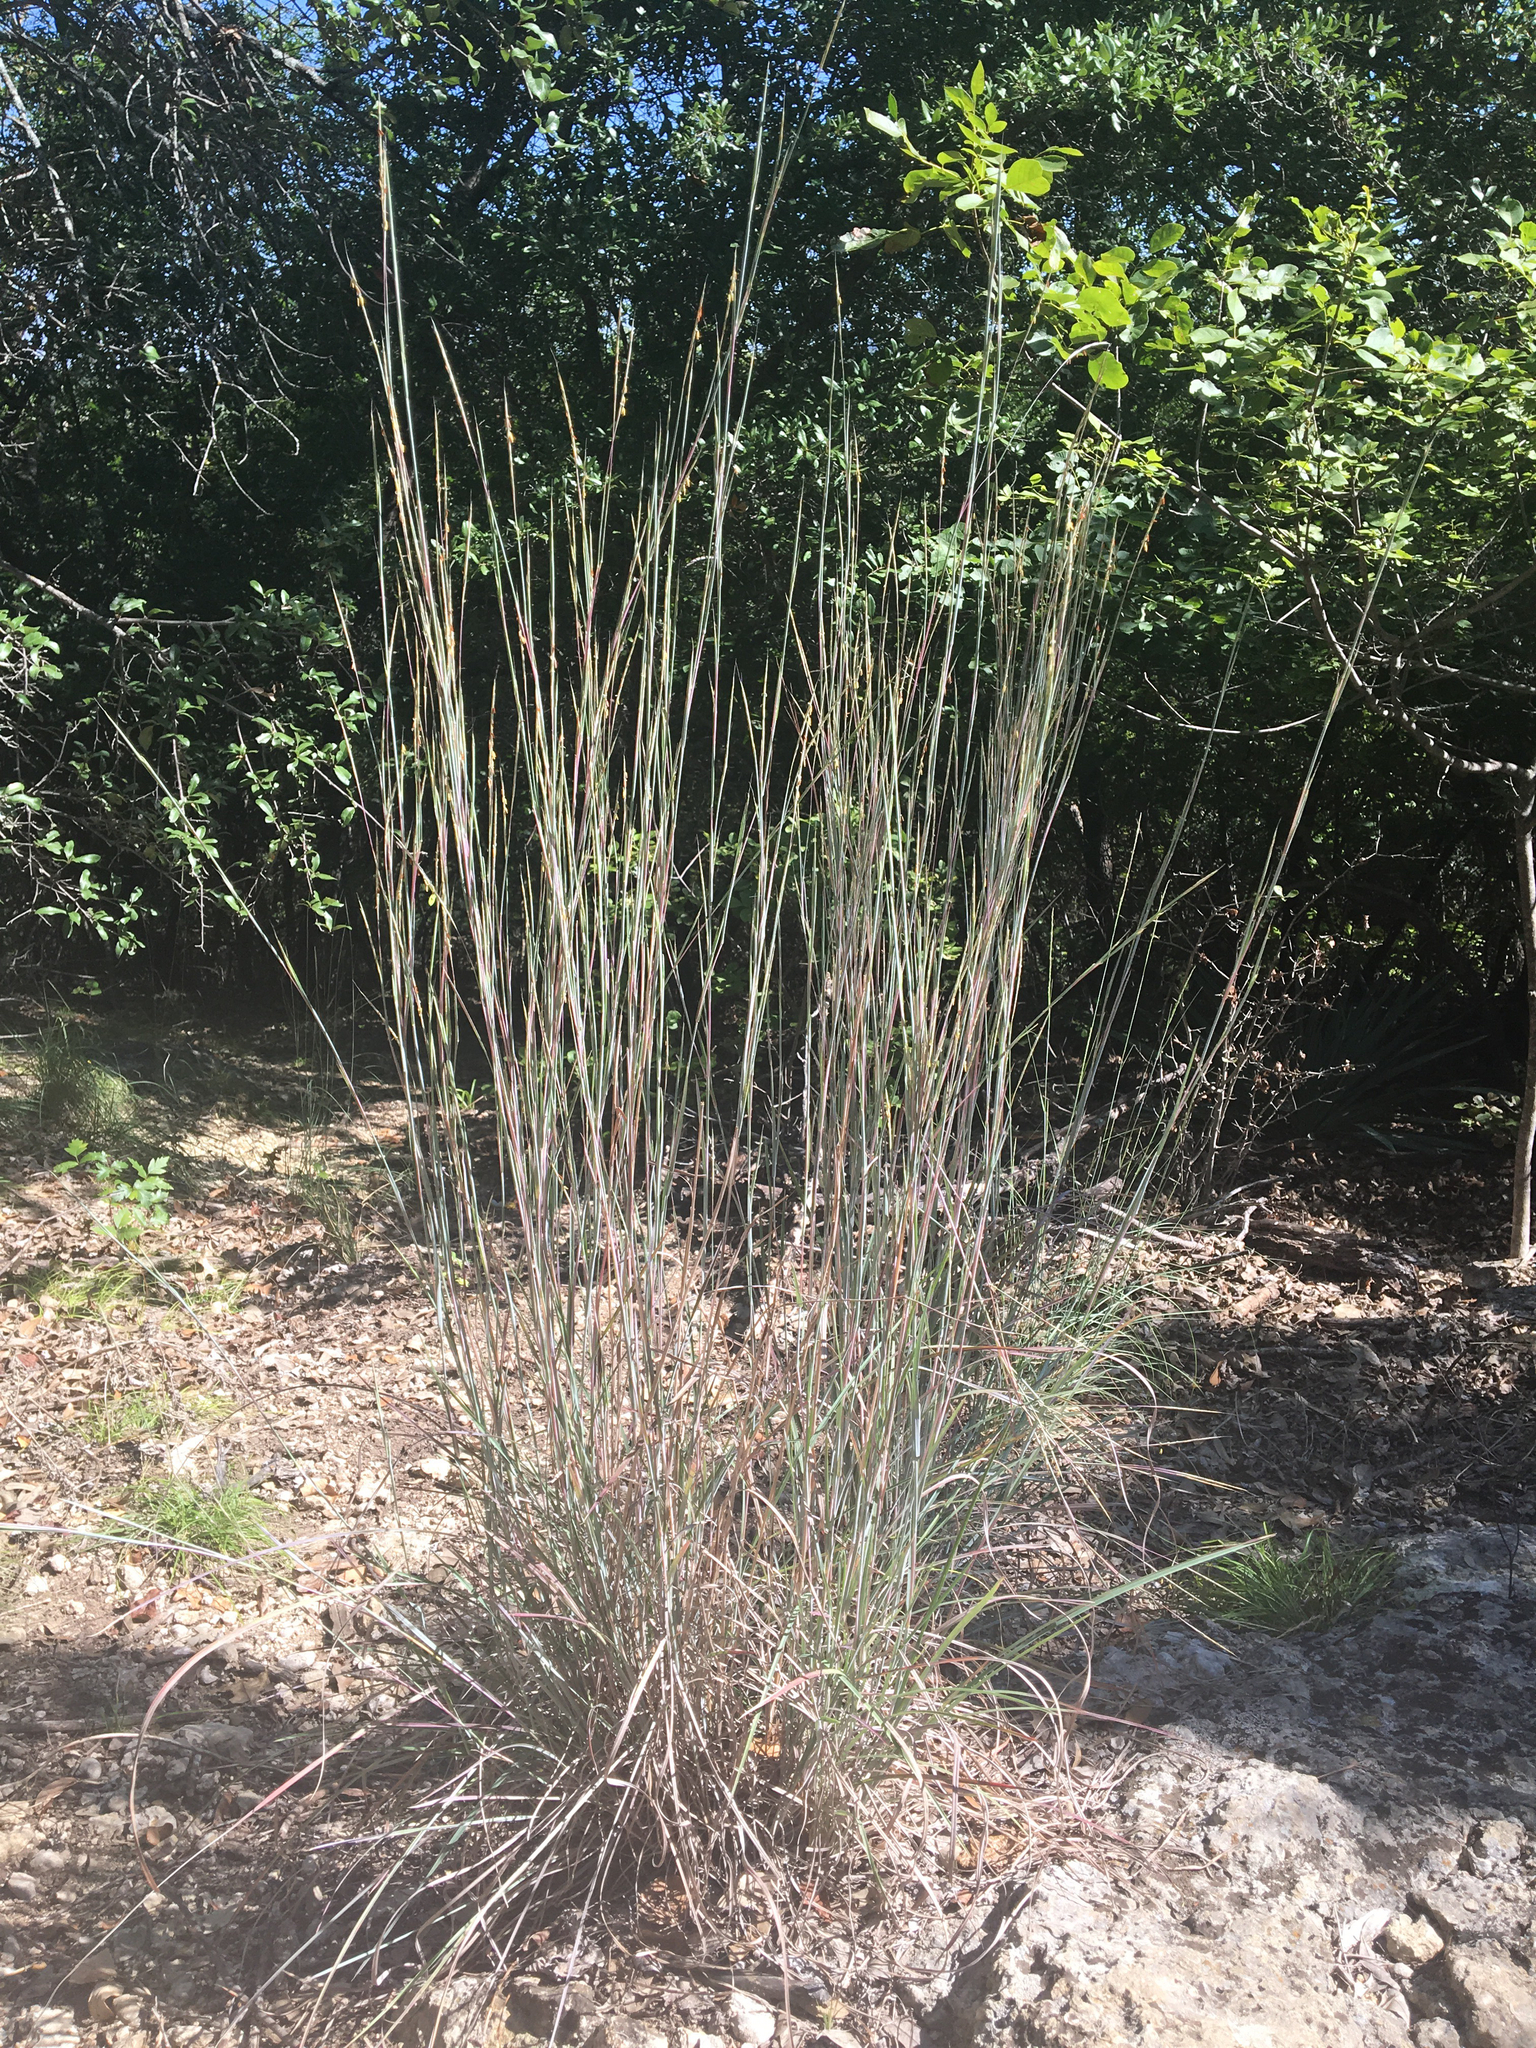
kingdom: Plantae
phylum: Tracheophyta
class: Liliopsida
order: Poales
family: Poaceae
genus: Schizachyrium
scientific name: Schizachyrium scoparium
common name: Little bluestem
